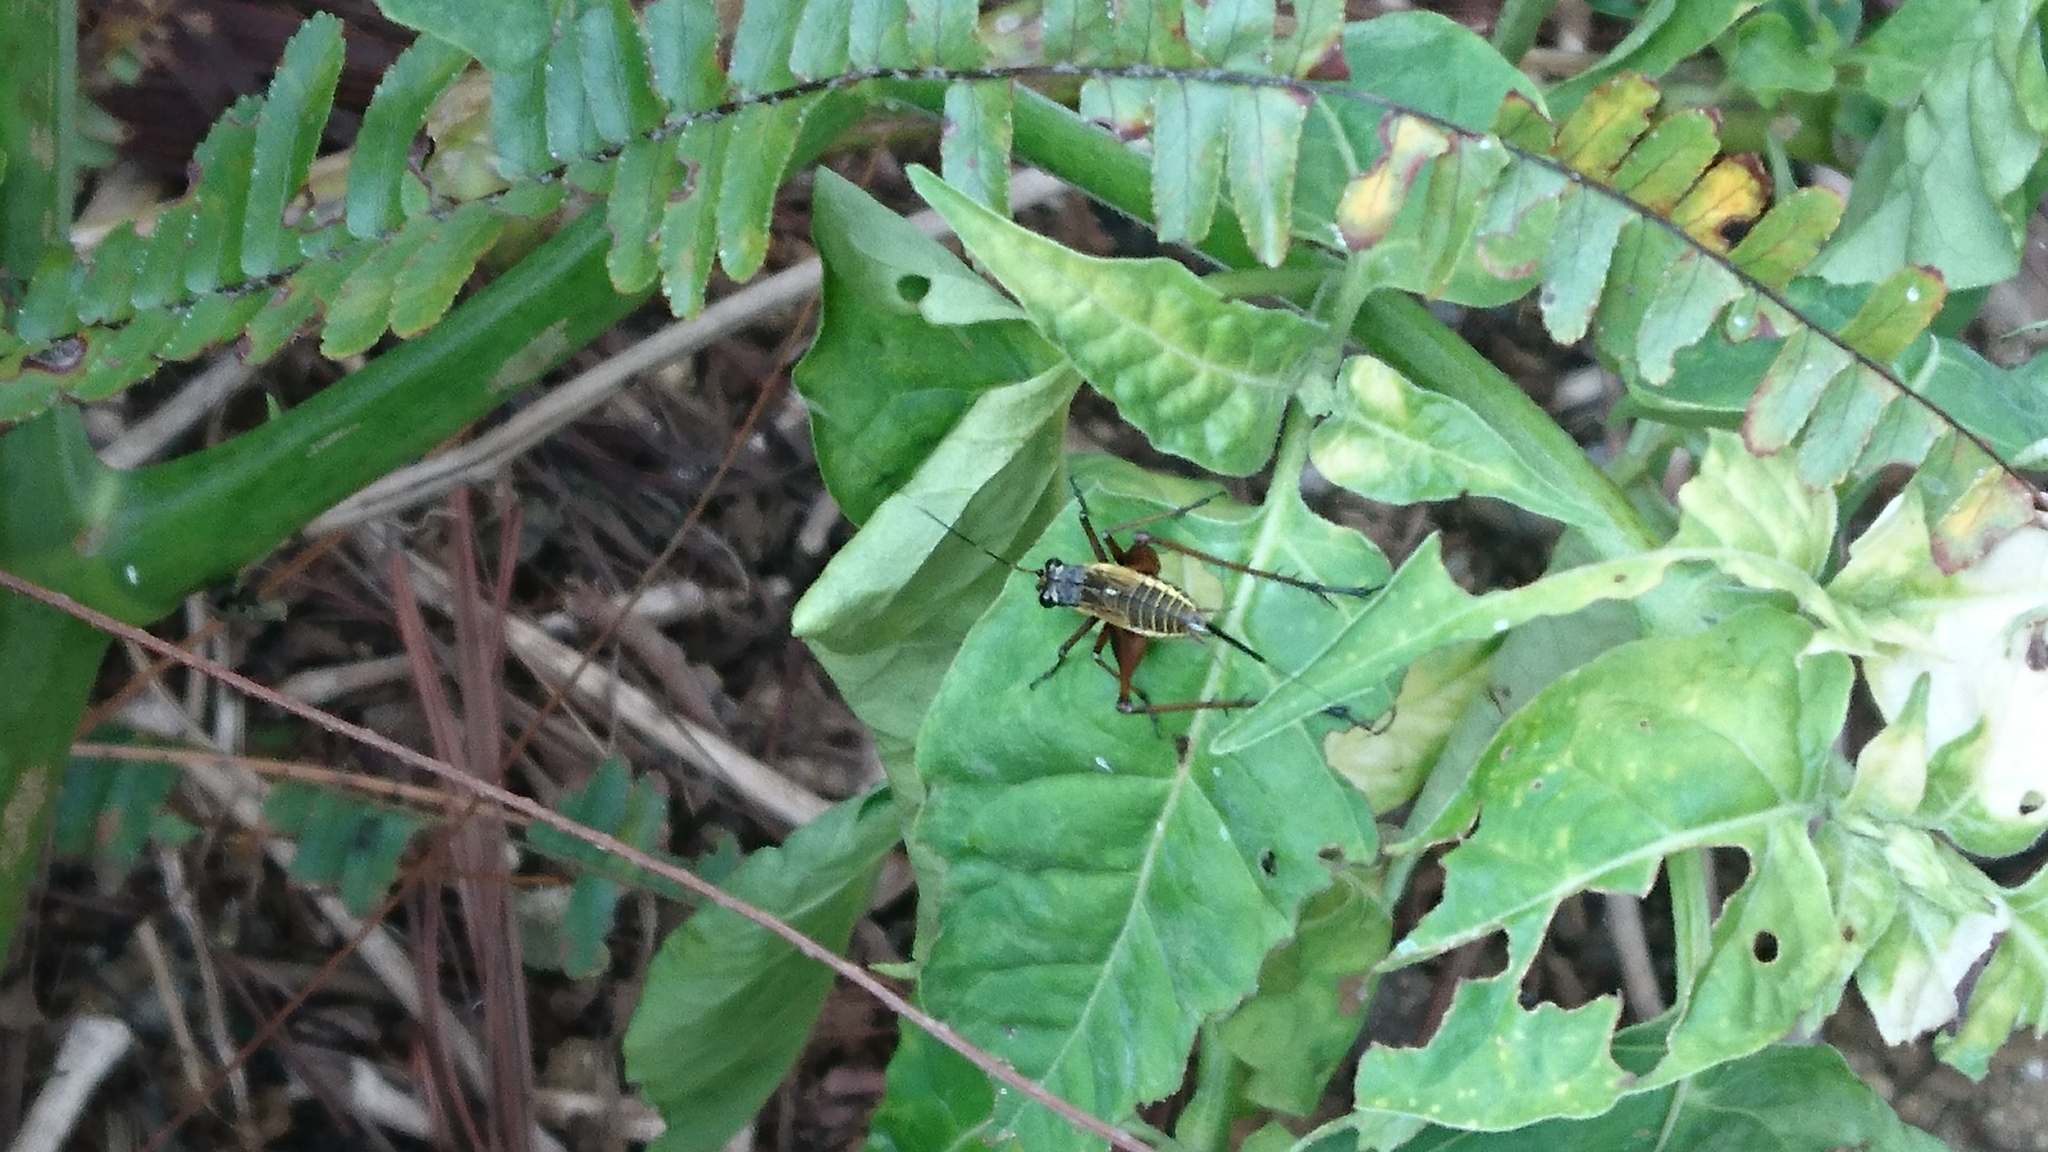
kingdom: Animalia
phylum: Arthropoda
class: Insecta
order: Orthoptera
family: Gryllidae
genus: Nisitrus
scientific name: Nisitrus musicus
